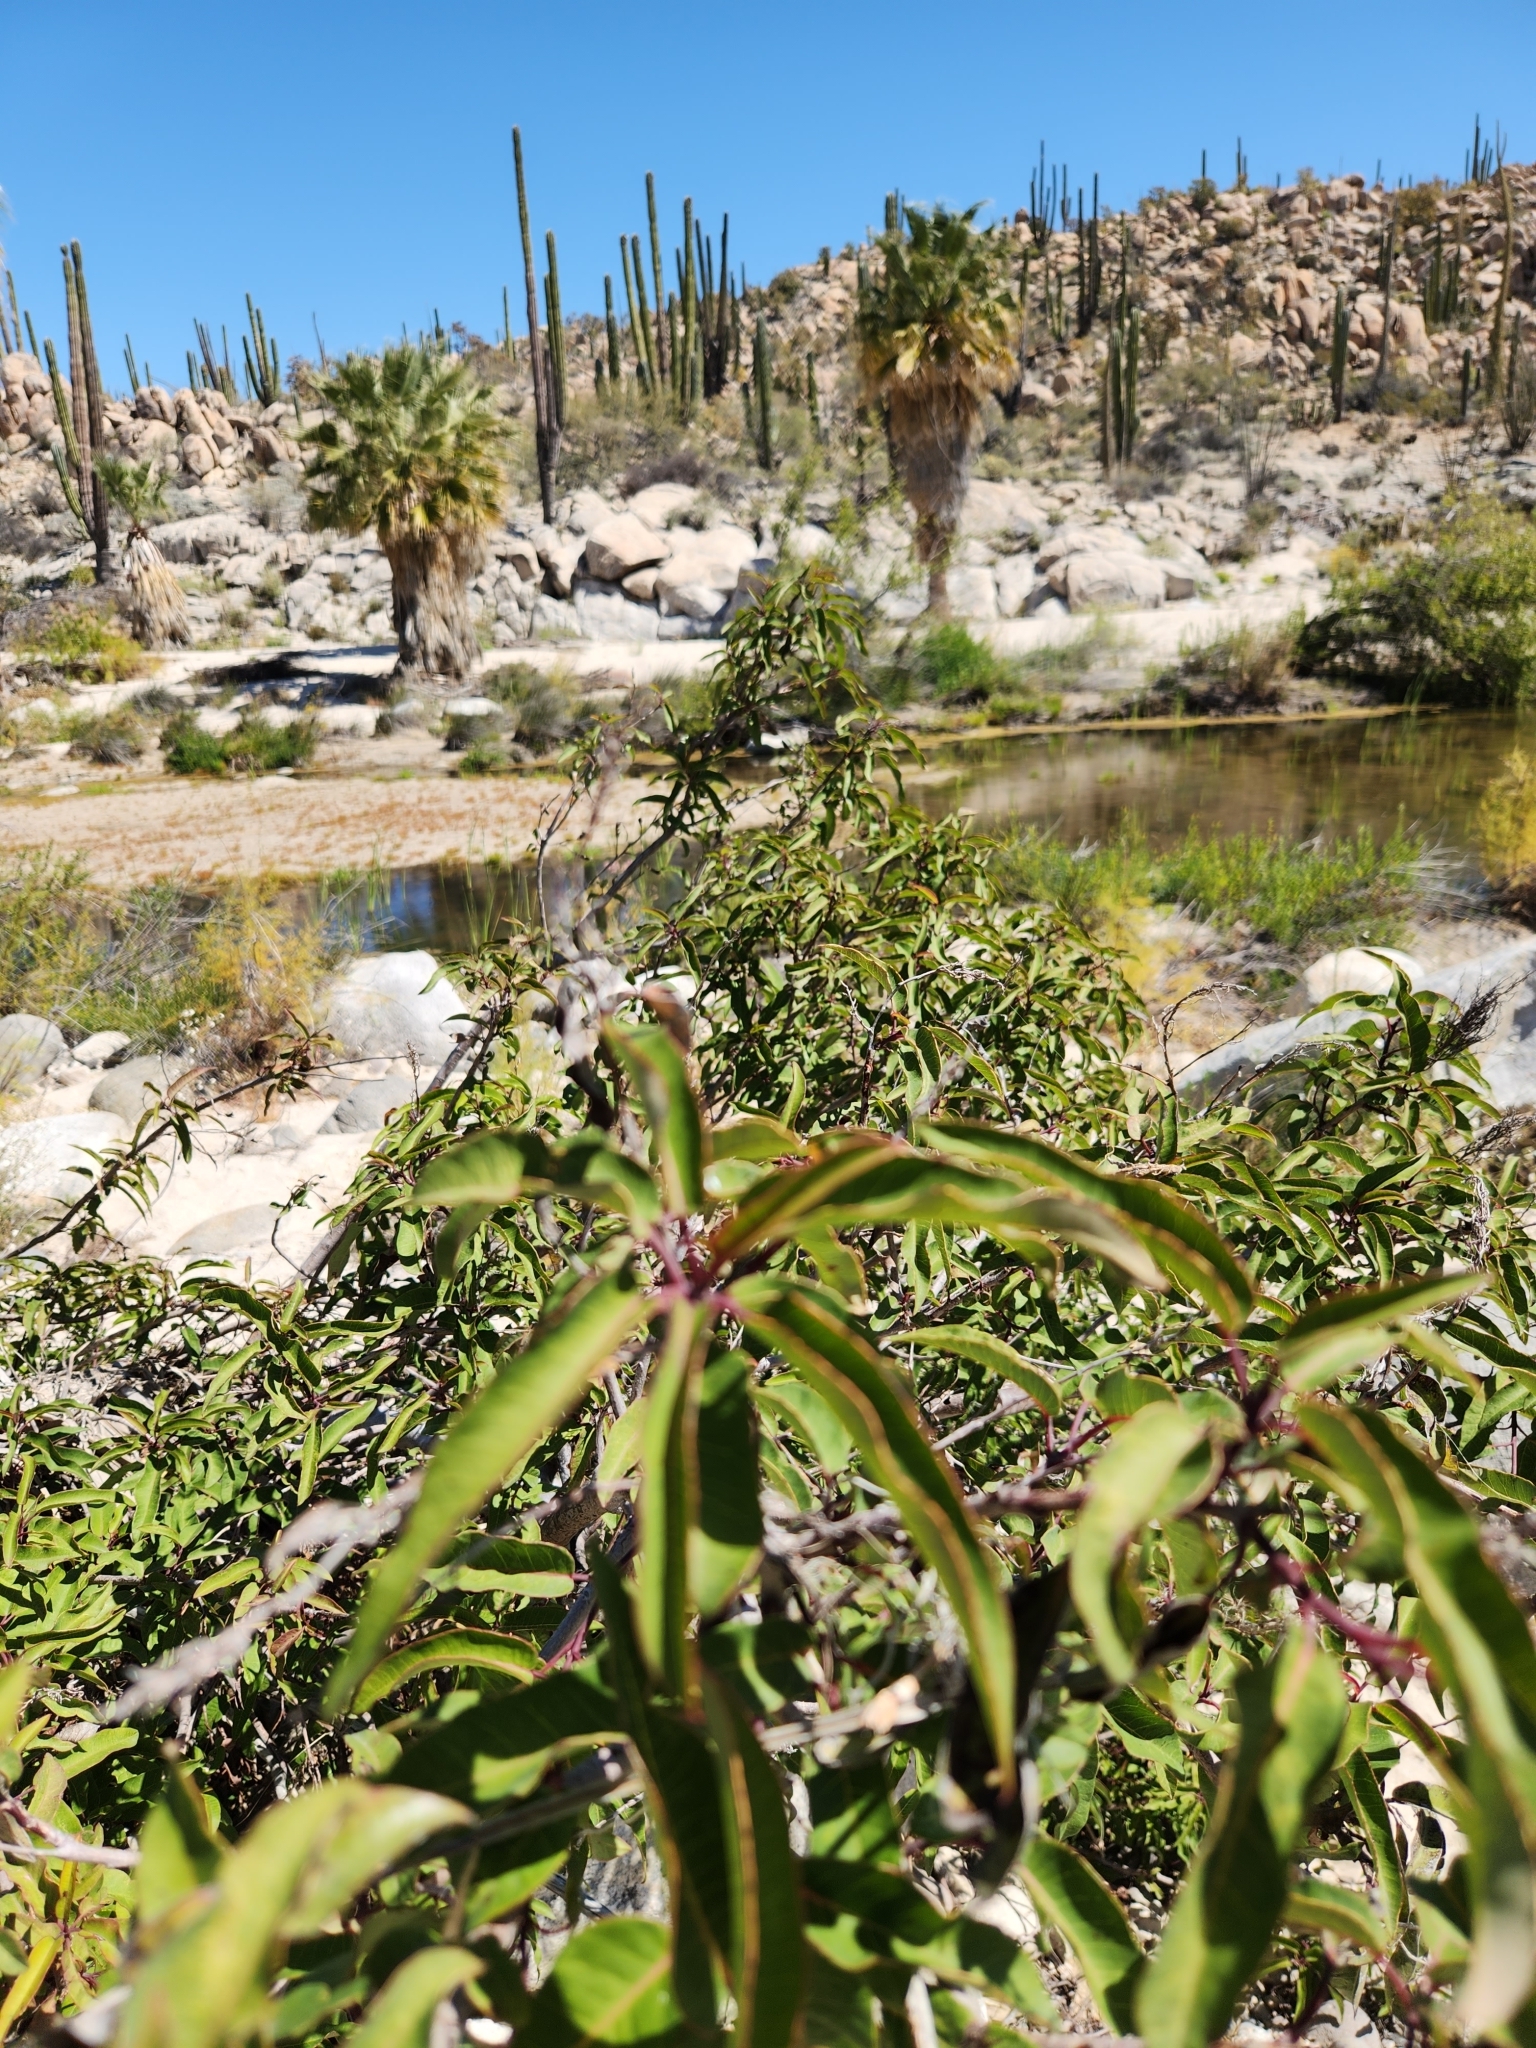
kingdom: Plantae
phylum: Tracheophyta
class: Magnoliopsida
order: Sapindales
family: Anacardiaceae
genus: Malosma
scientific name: Malosma laurina
